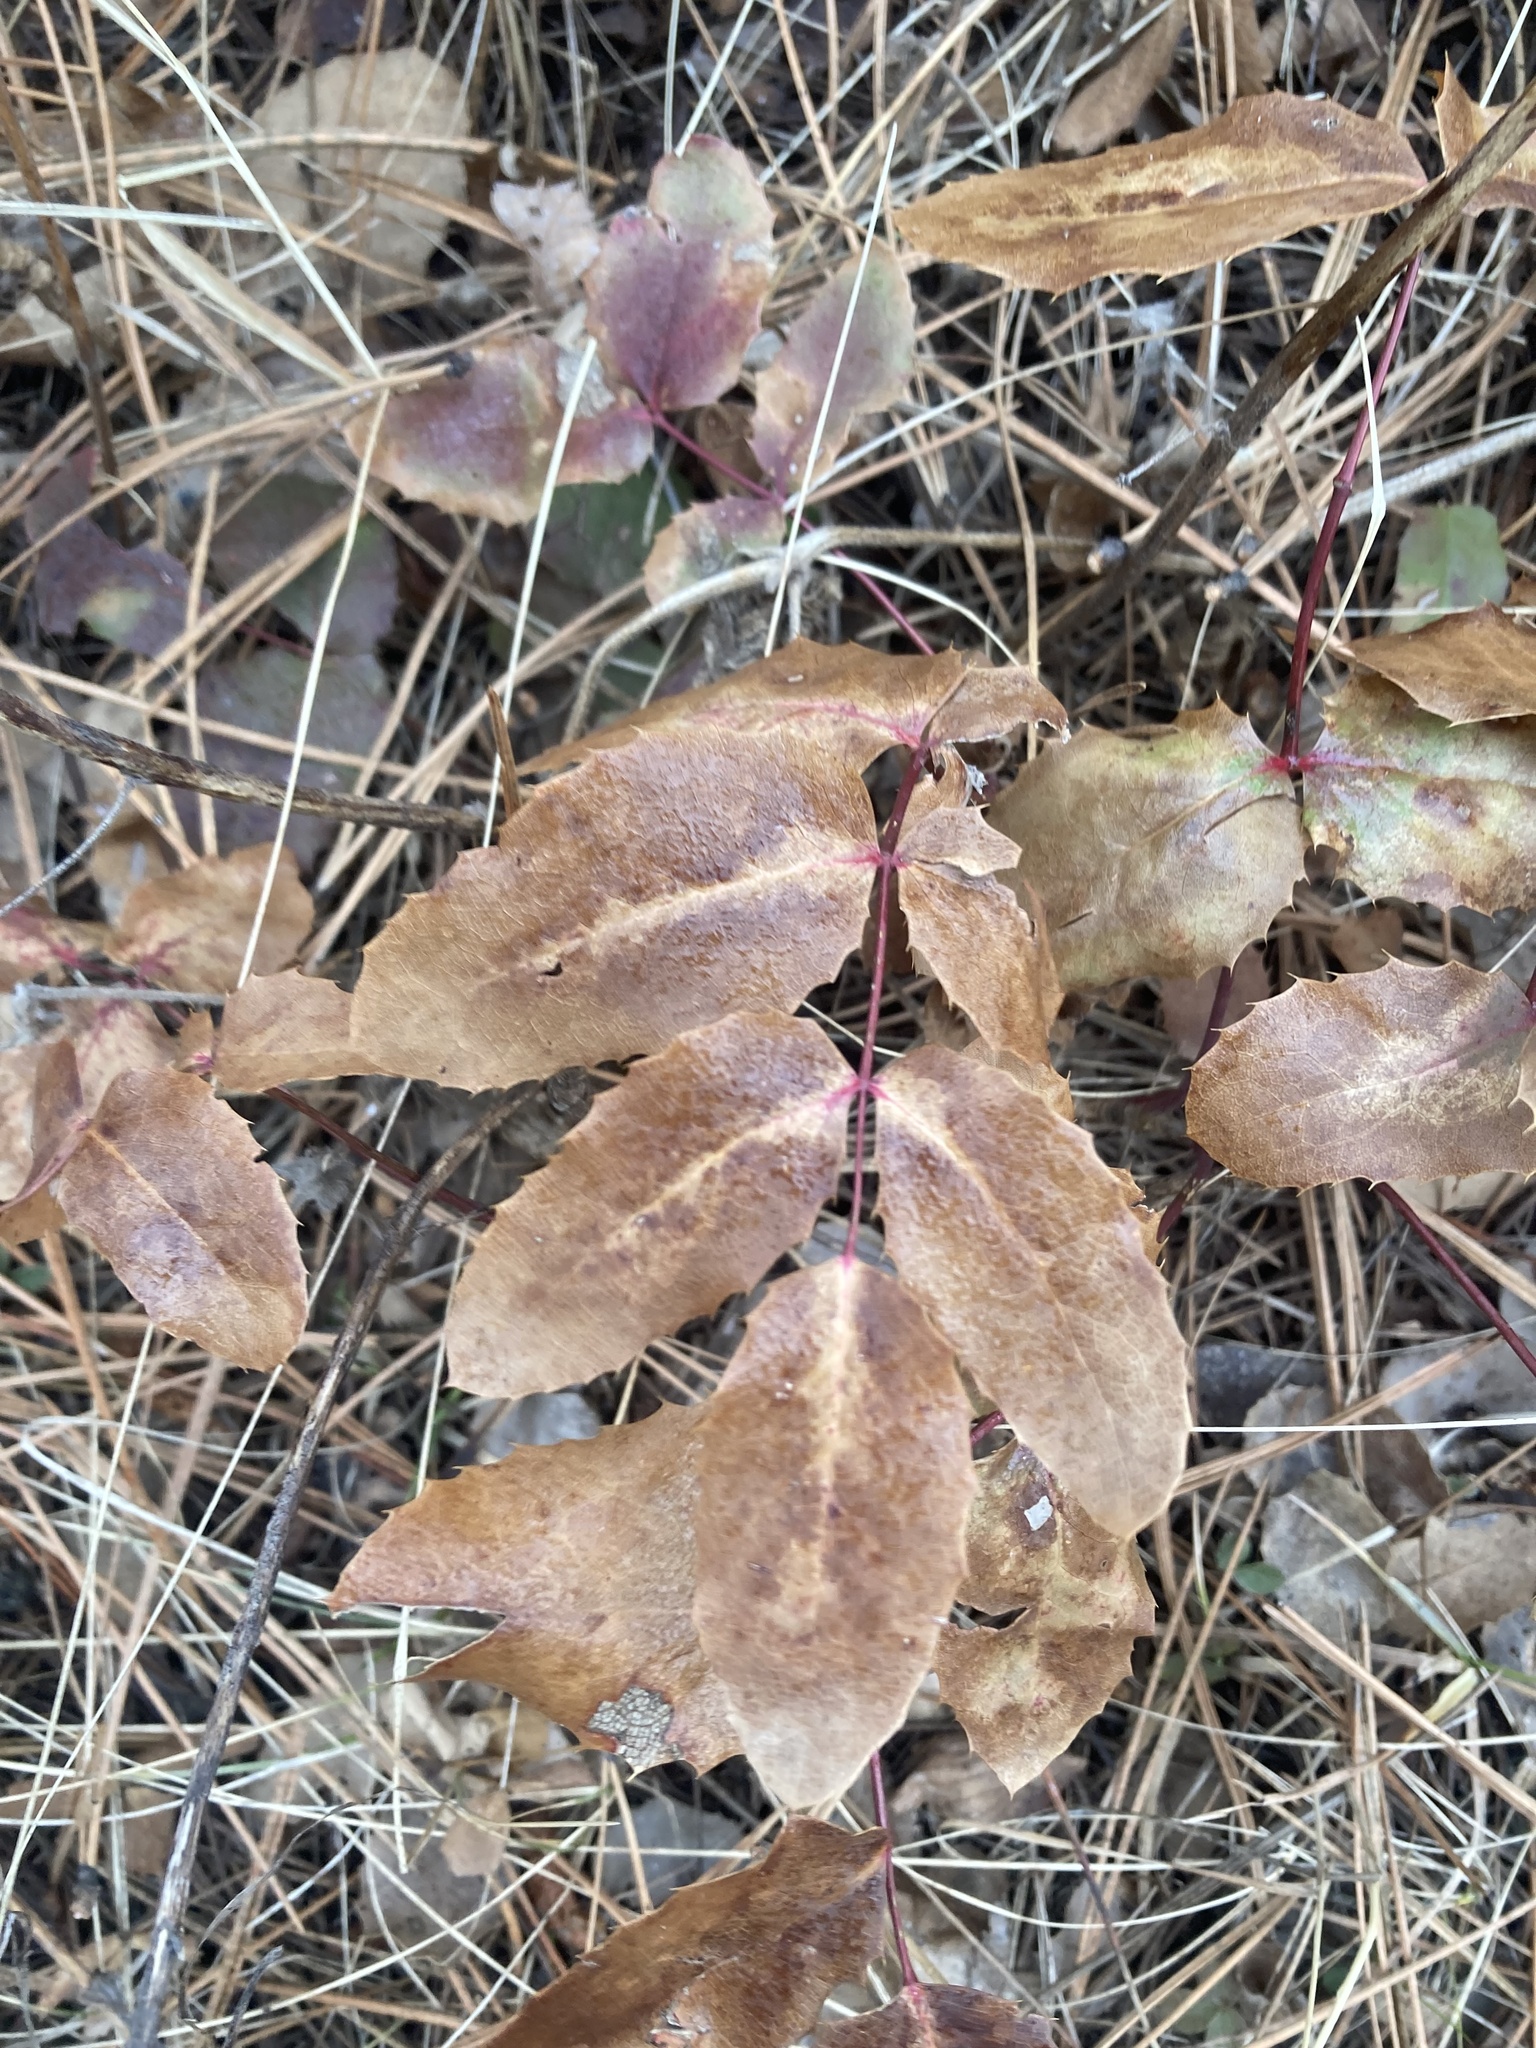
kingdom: Plantae
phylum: Tracheophyta
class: Magnoliopsida
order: Ranunculales
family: Berberidaceae
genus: Mahonia
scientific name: Mahonia repens
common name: Creeping oregon-grape
